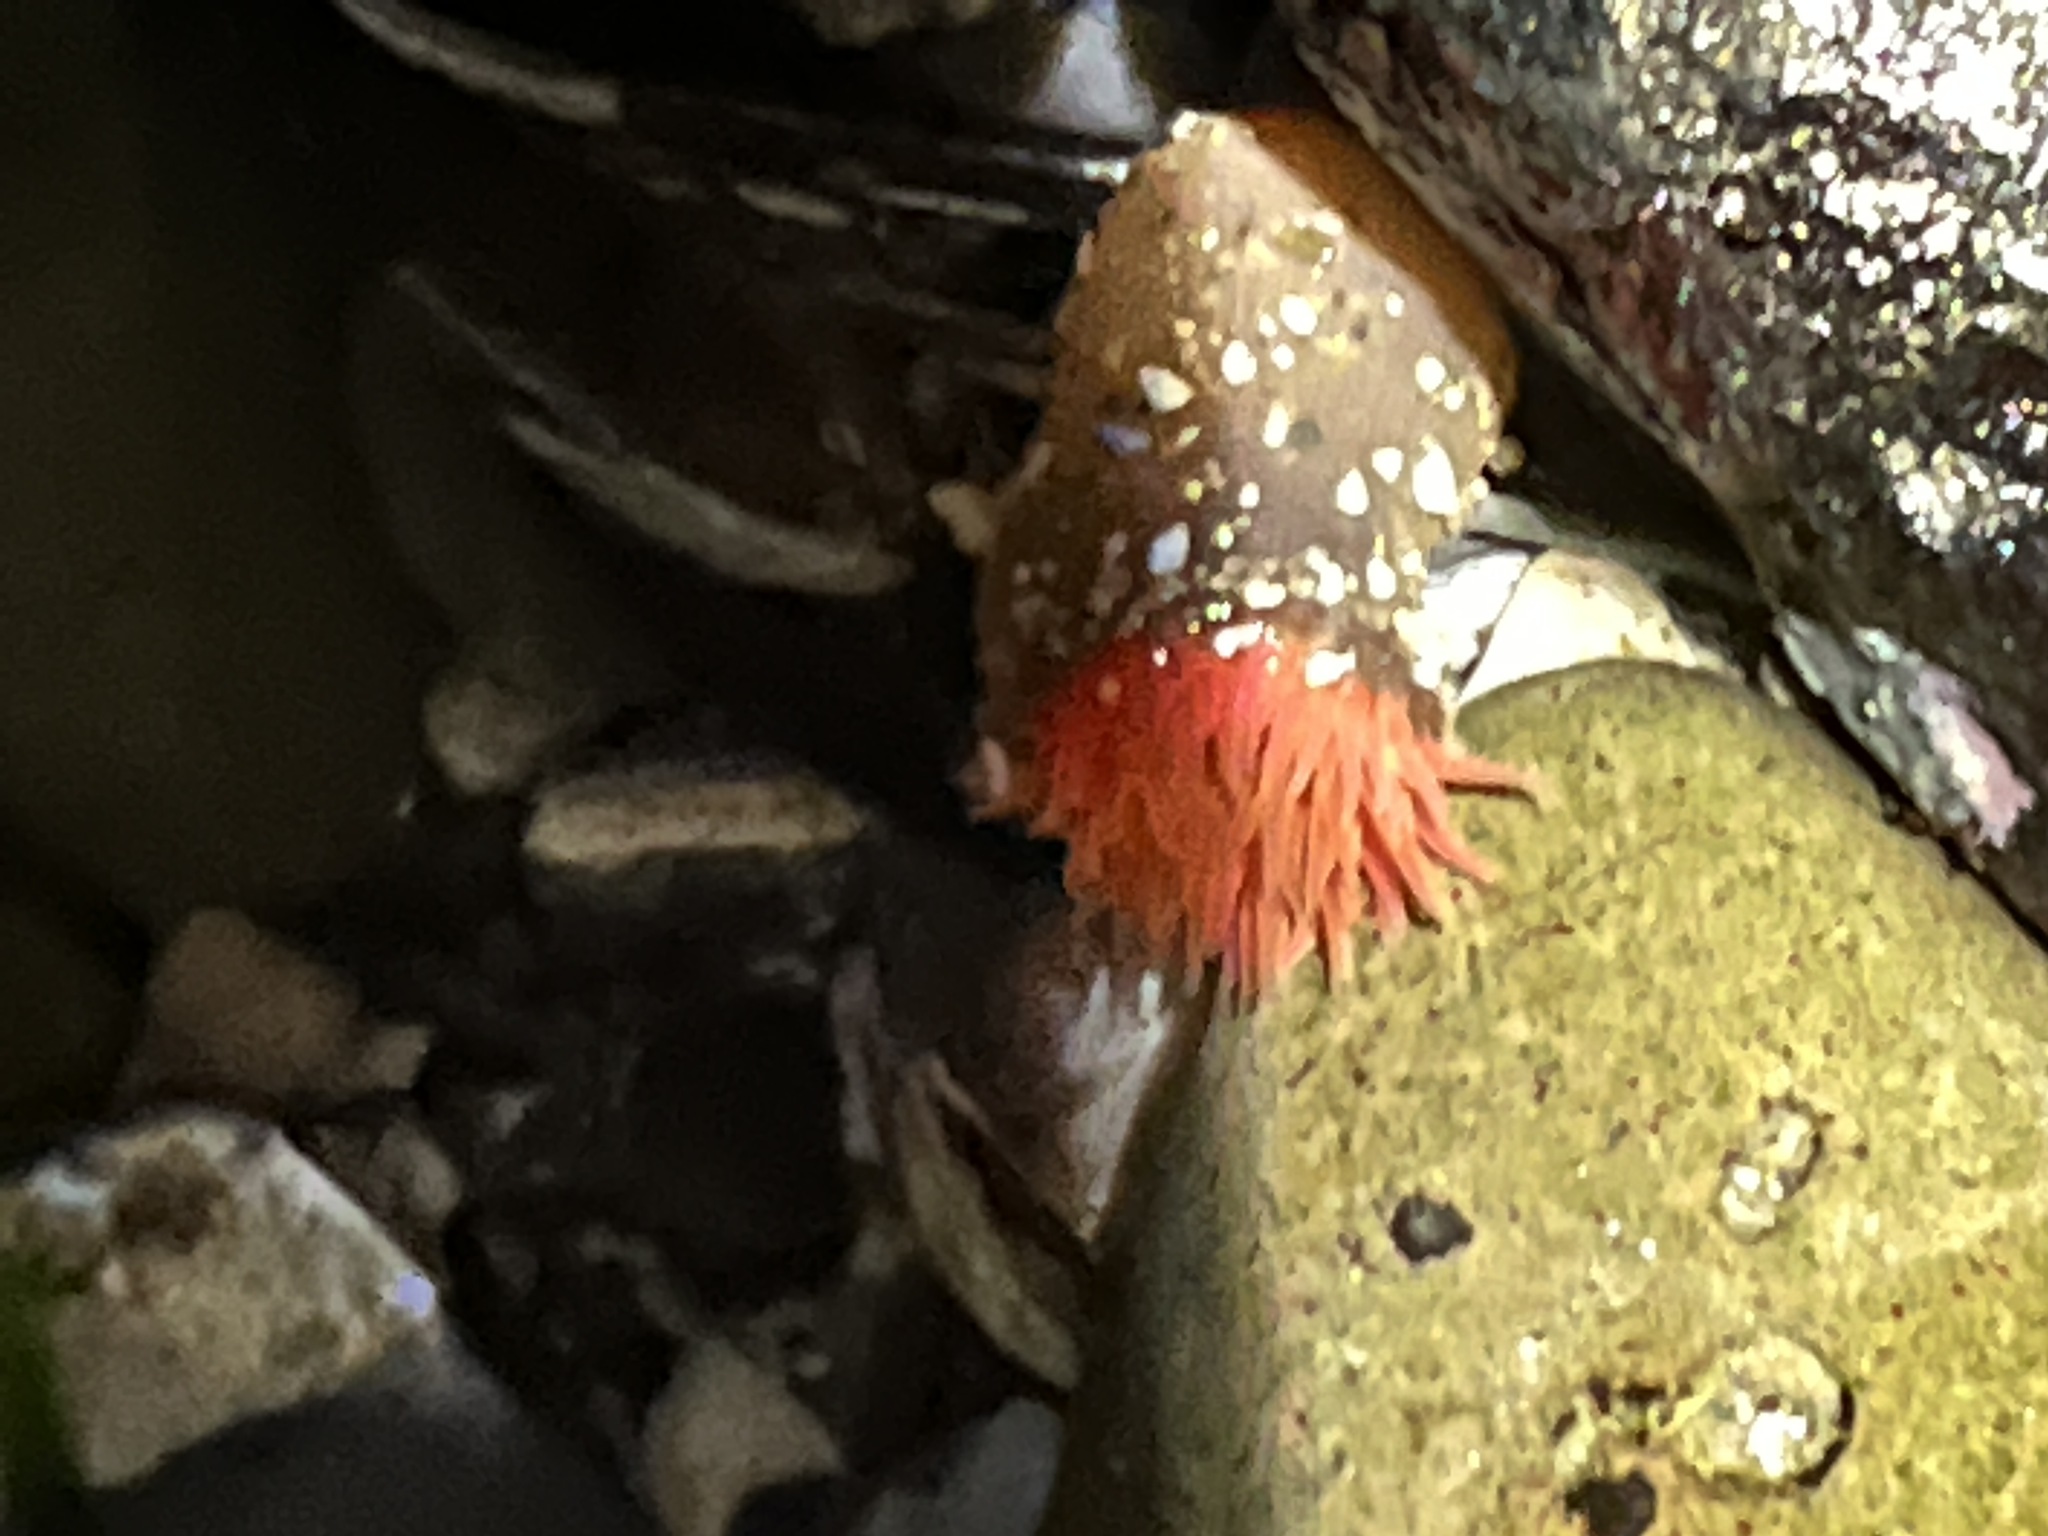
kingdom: Animalia
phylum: Cnidaria
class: Anthozoa
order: Actiniaria
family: Actiniidae
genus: Anthopleura
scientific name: Anthopleura artemisia
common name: Buried sea anemone
